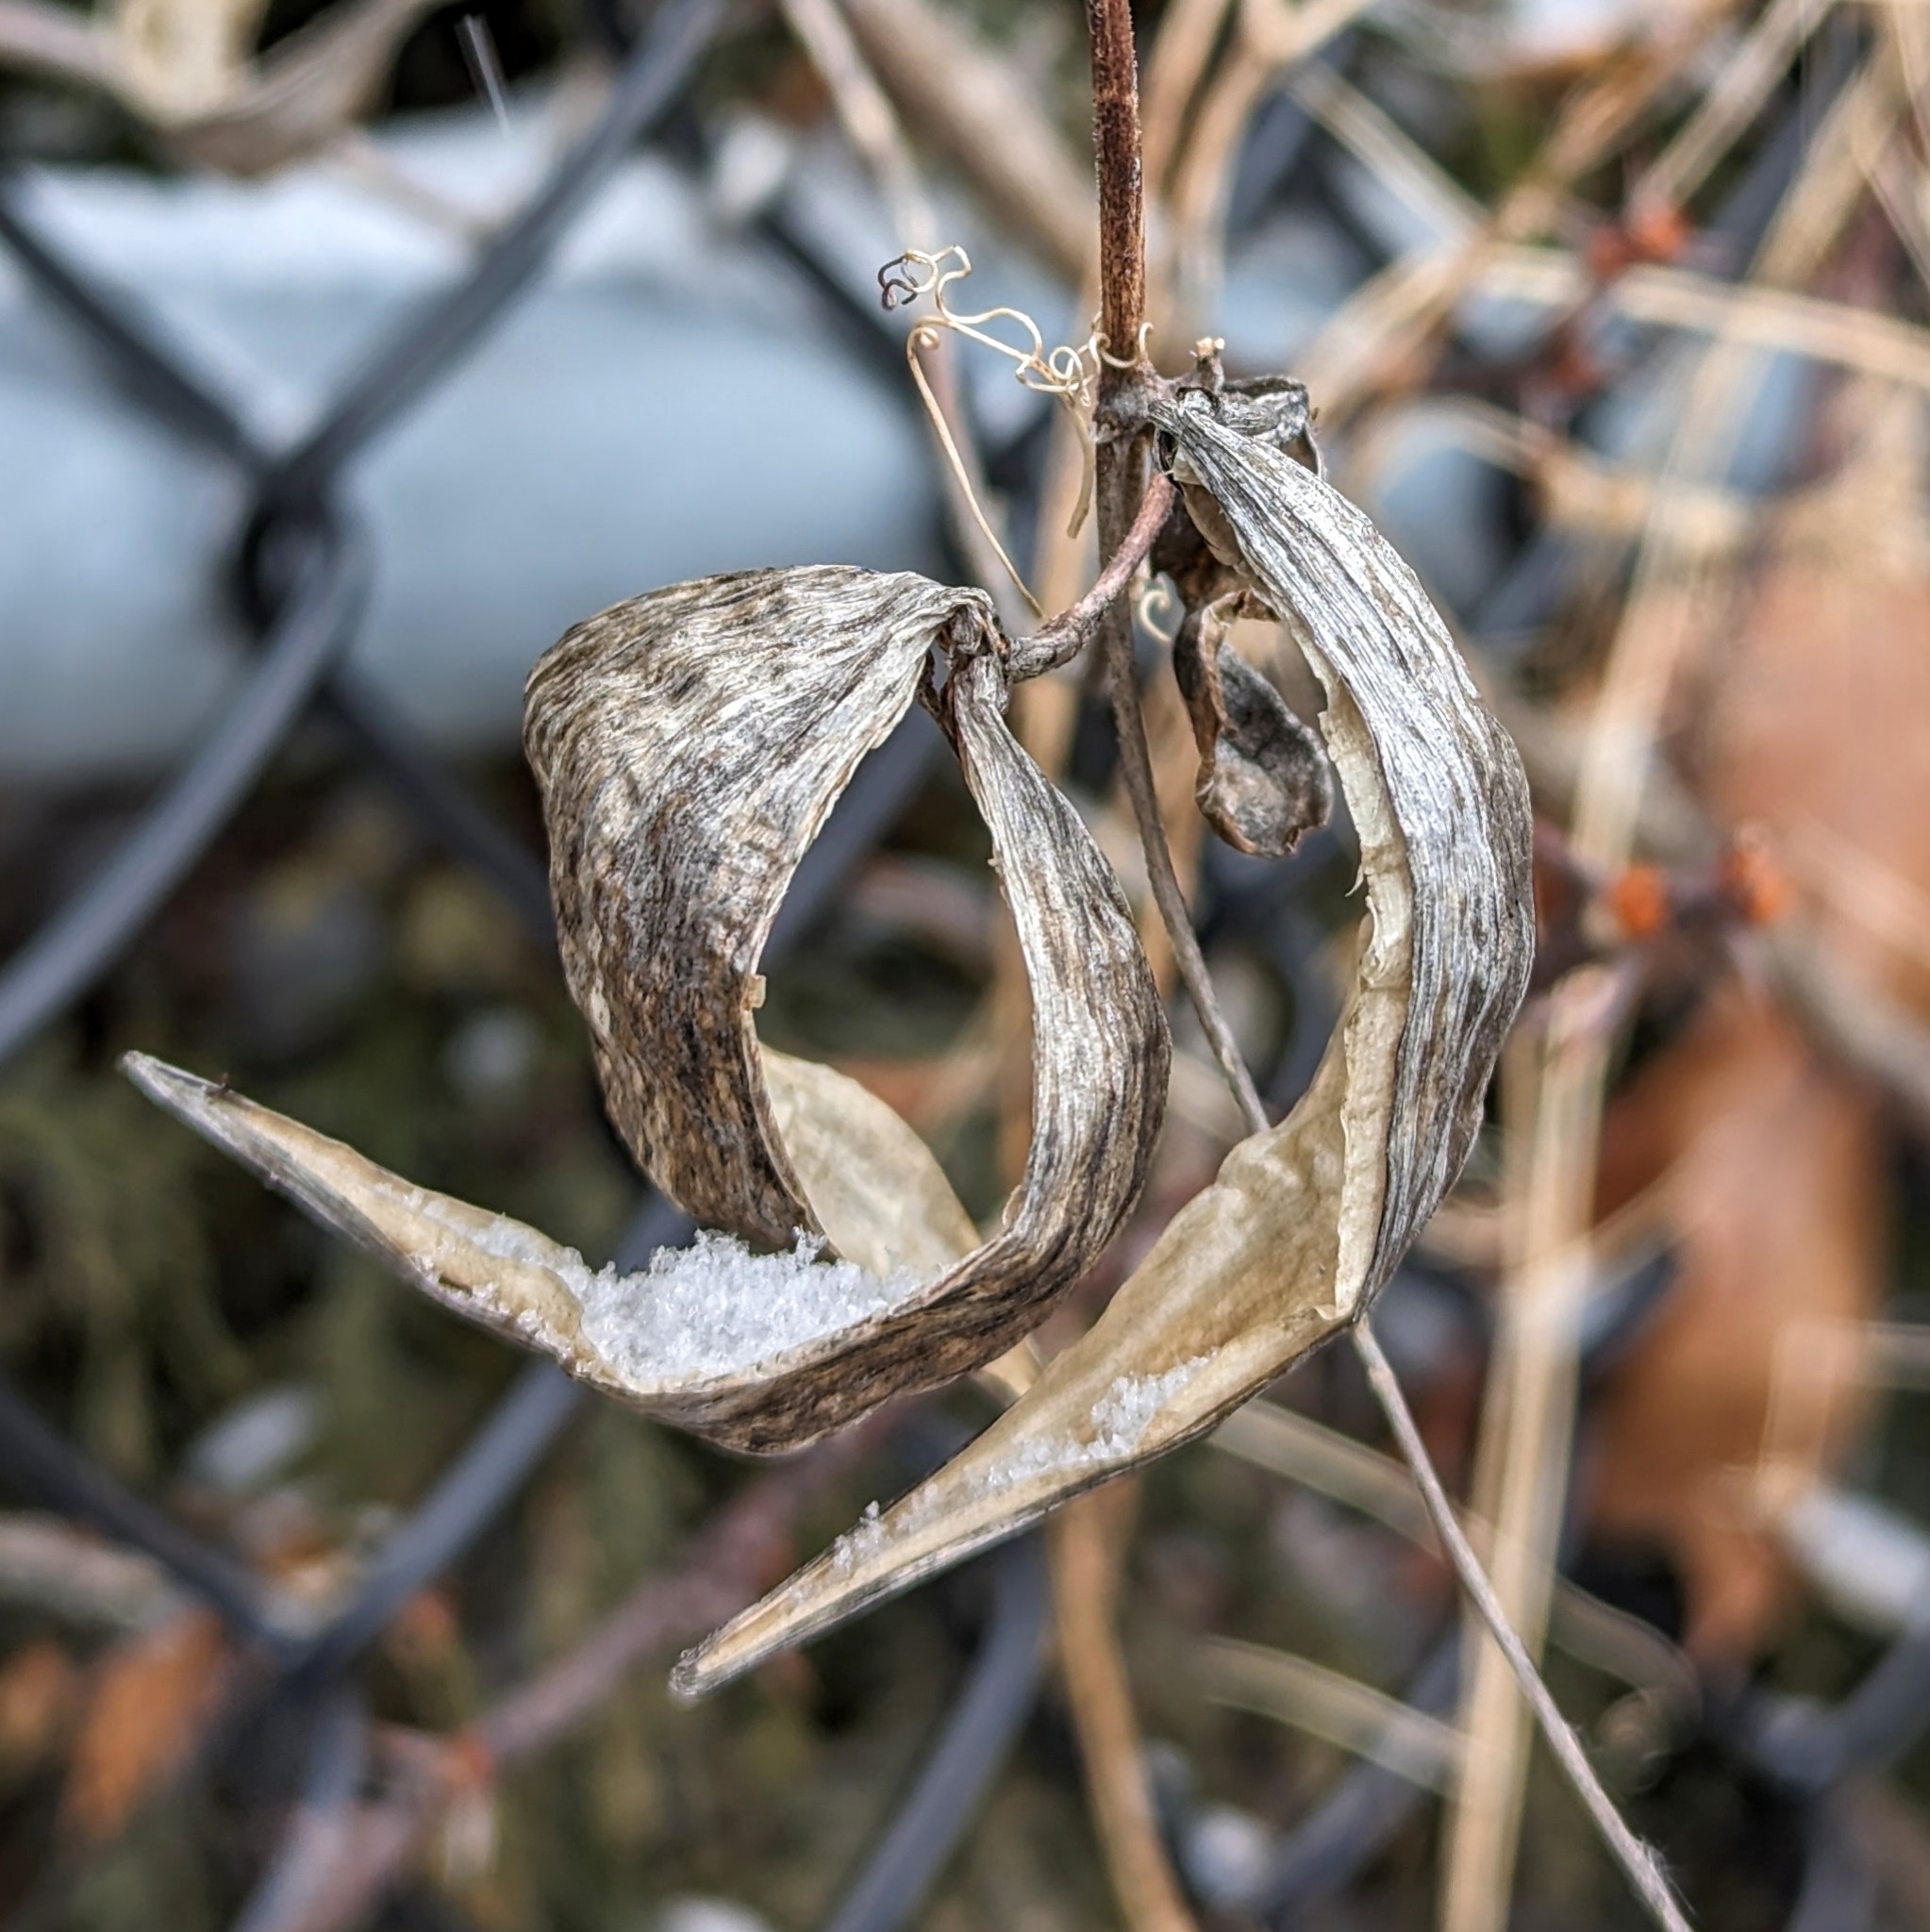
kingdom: Plantae
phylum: Tracheophyta
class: Magnoliopsida
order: Gentianales
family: Apocynaceae
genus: Vincetoxicum
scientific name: Vincetoxicum rossicum
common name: Dog-strangling vine
